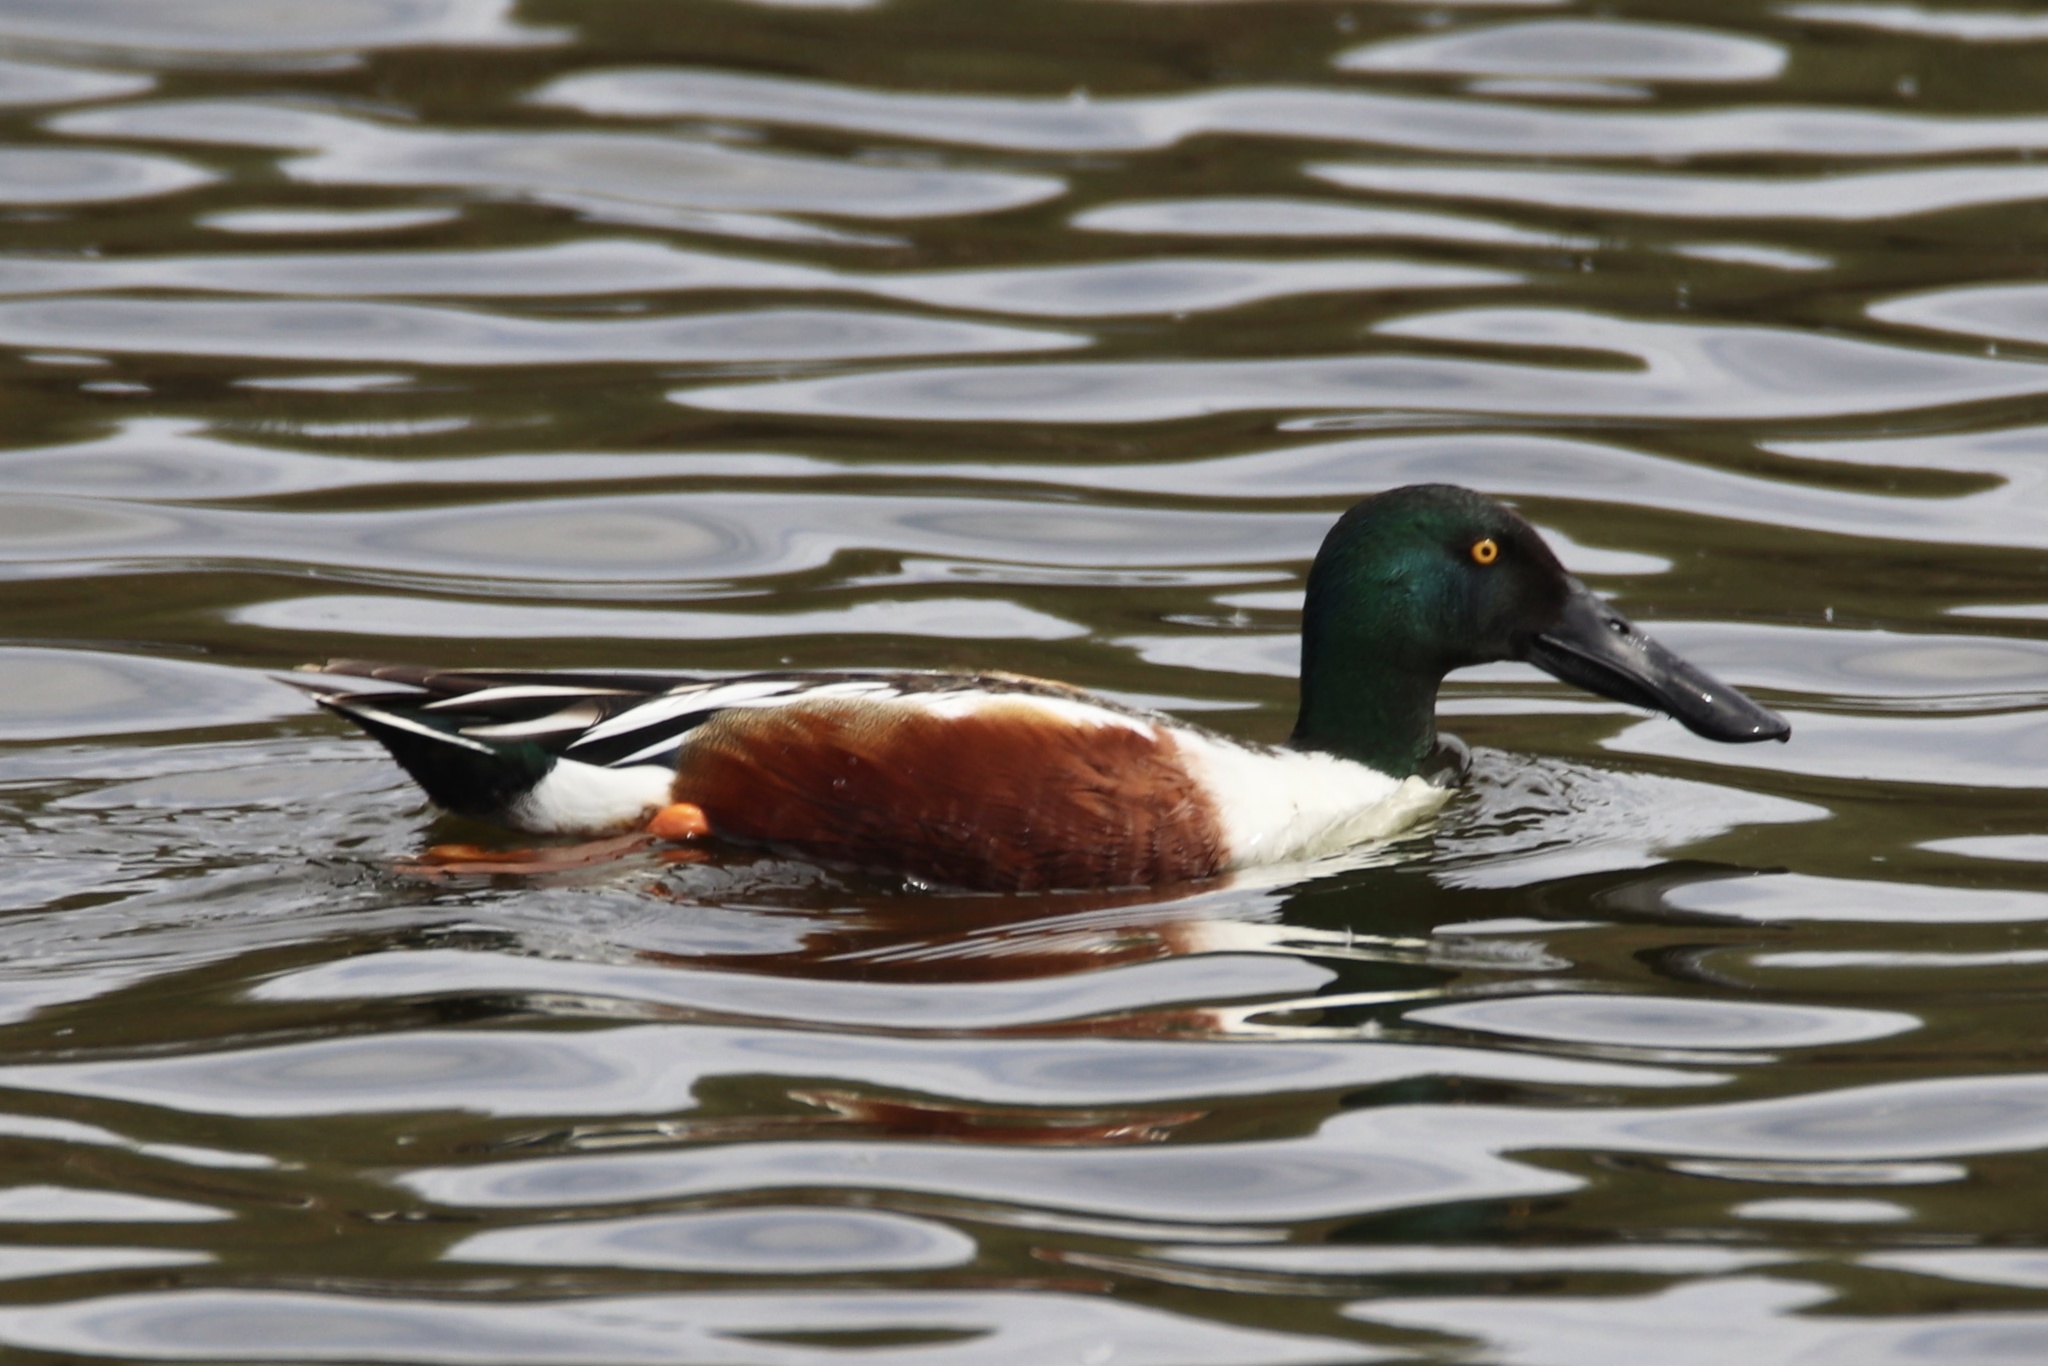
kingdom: Animalia
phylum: Chordata
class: Aves
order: Anseriformes
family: Anatidae
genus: Spatula
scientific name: Spatula clypeata
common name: Northern shoveler
